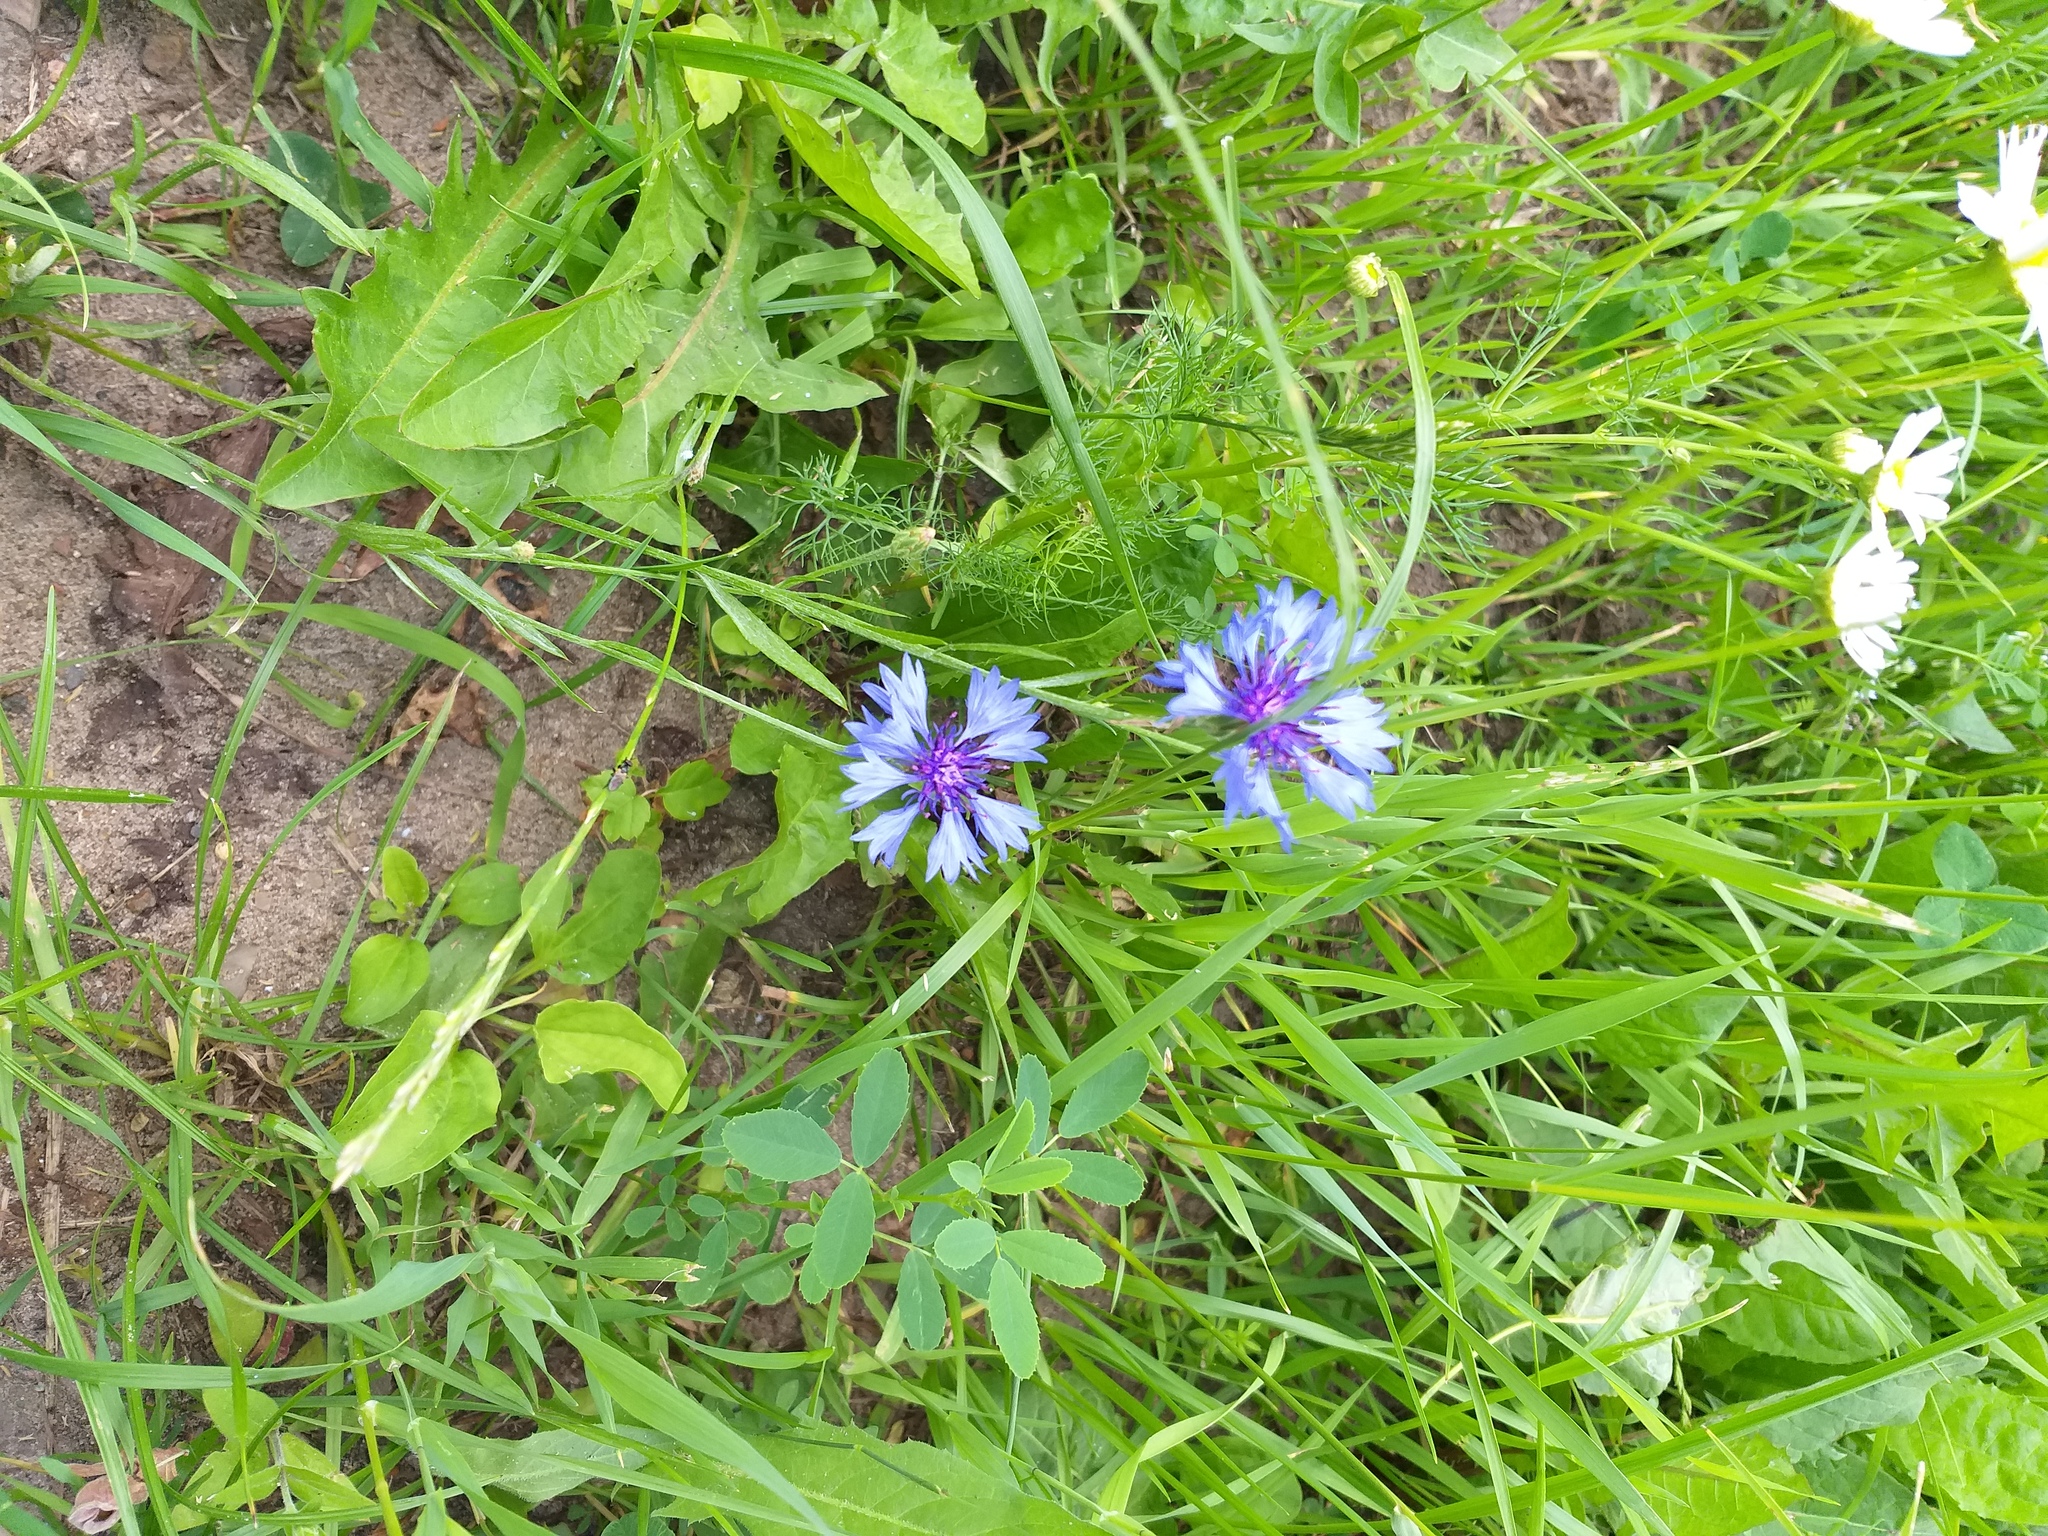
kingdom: Plantae
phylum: Tracheophyta
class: Magnoliopsida
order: Asterales
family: Asteraceae
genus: Centaurea
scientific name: Centaurea cyanus
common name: Cornflower
